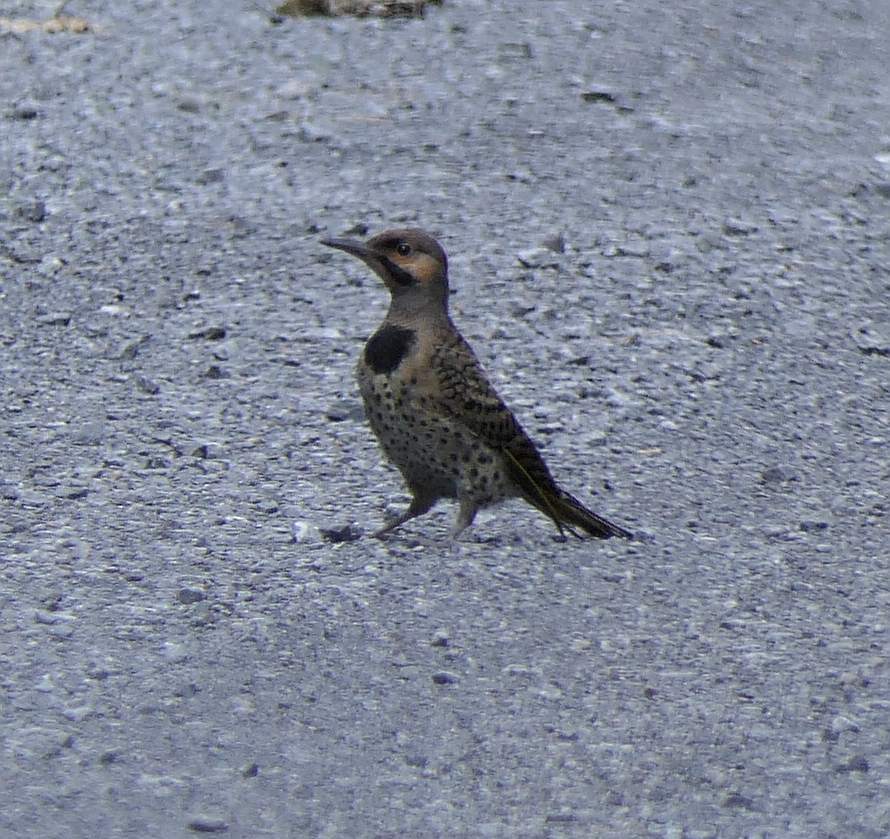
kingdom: Animalia
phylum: Chordata
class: Aves
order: Piciformes
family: Picidae
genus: Colaptes
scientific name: Colaptes auratus
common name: Northern flicker
